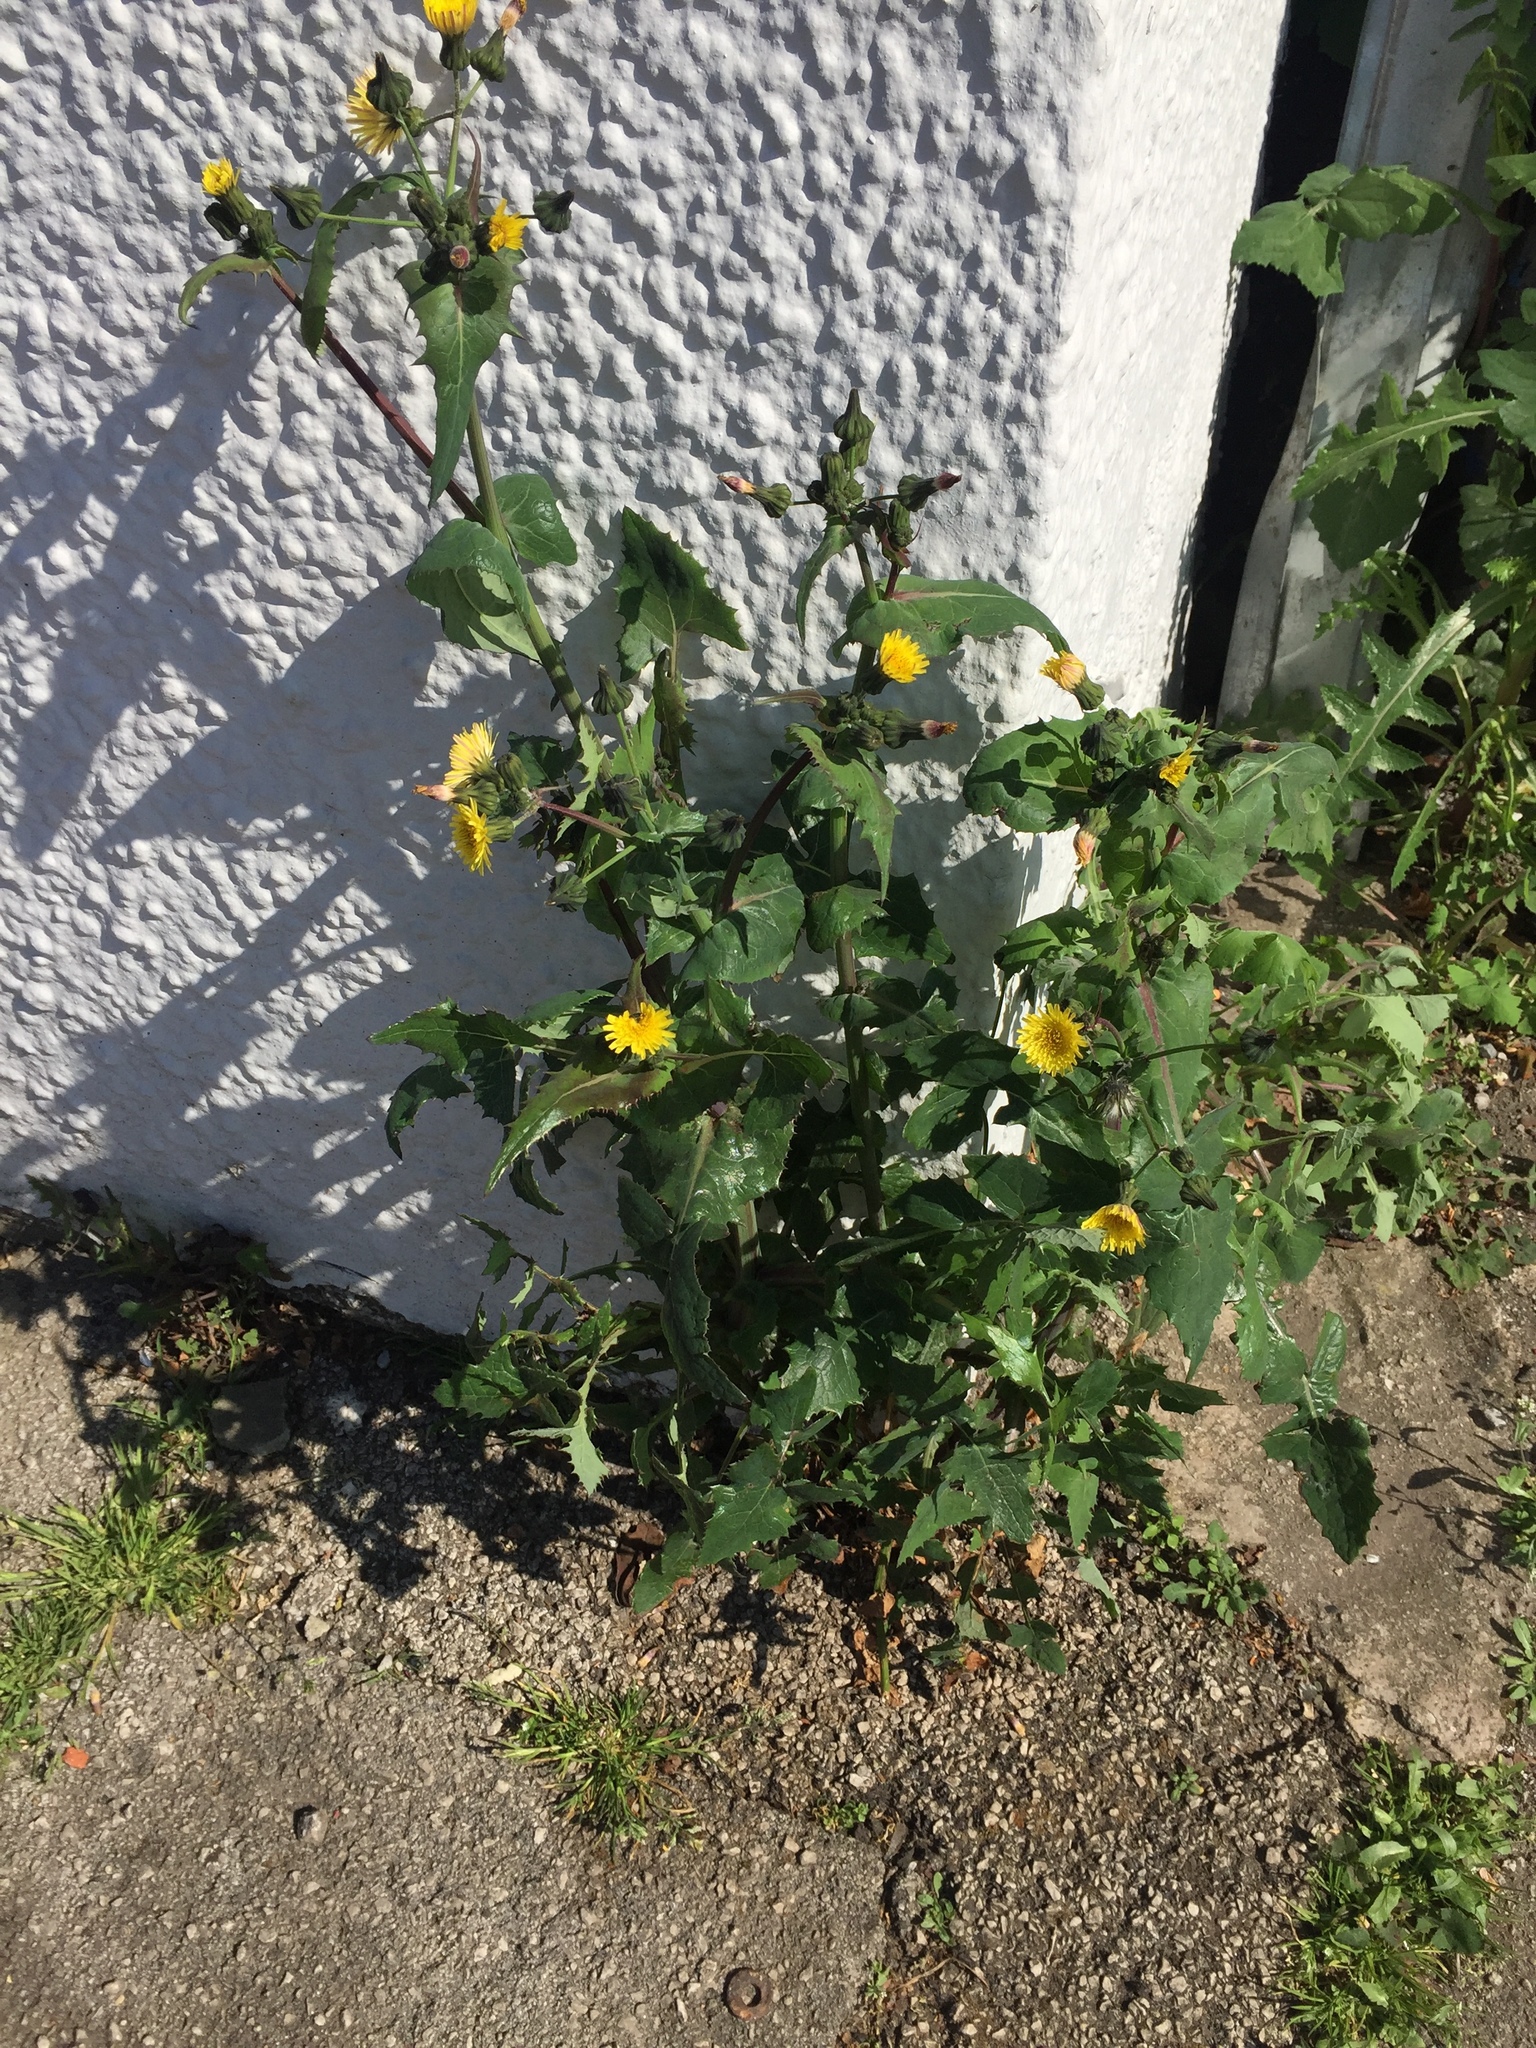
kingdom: Plantae
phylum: Tracheophyta
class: Magnoliopsida
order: Asterales
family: Asteraceae
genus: Sonchus
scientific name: Sonchus oleraceus
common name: Common sowthistle
